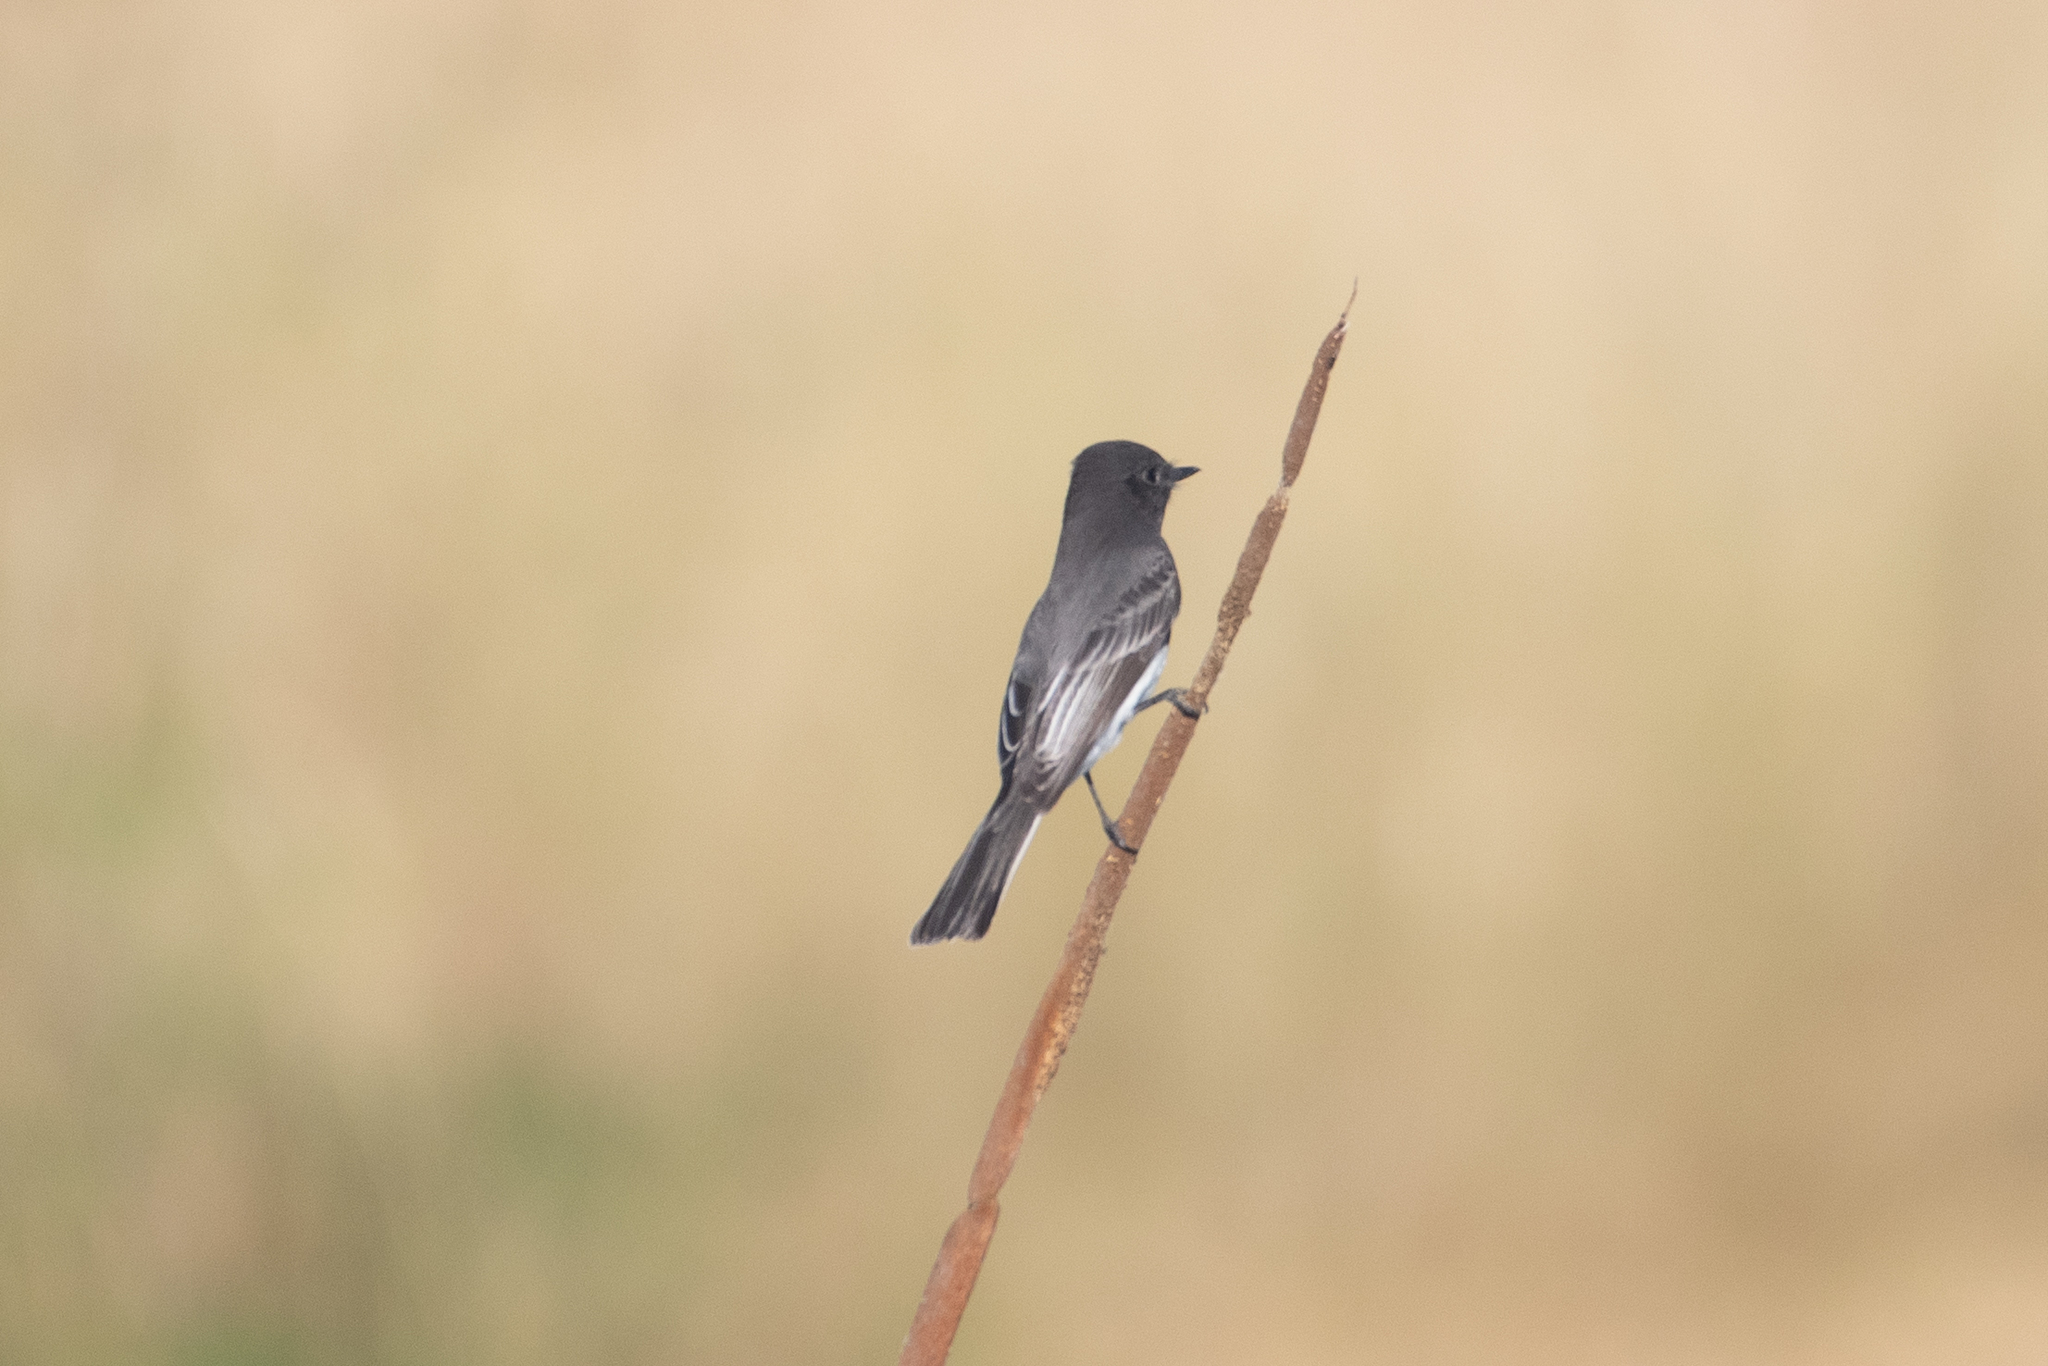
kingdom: Animalia
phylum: Chordata
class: Aves
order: Passeriformes
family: Tyrannidae
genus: Sayornis
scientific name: Sayornis nigricans
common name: Black phoebe
